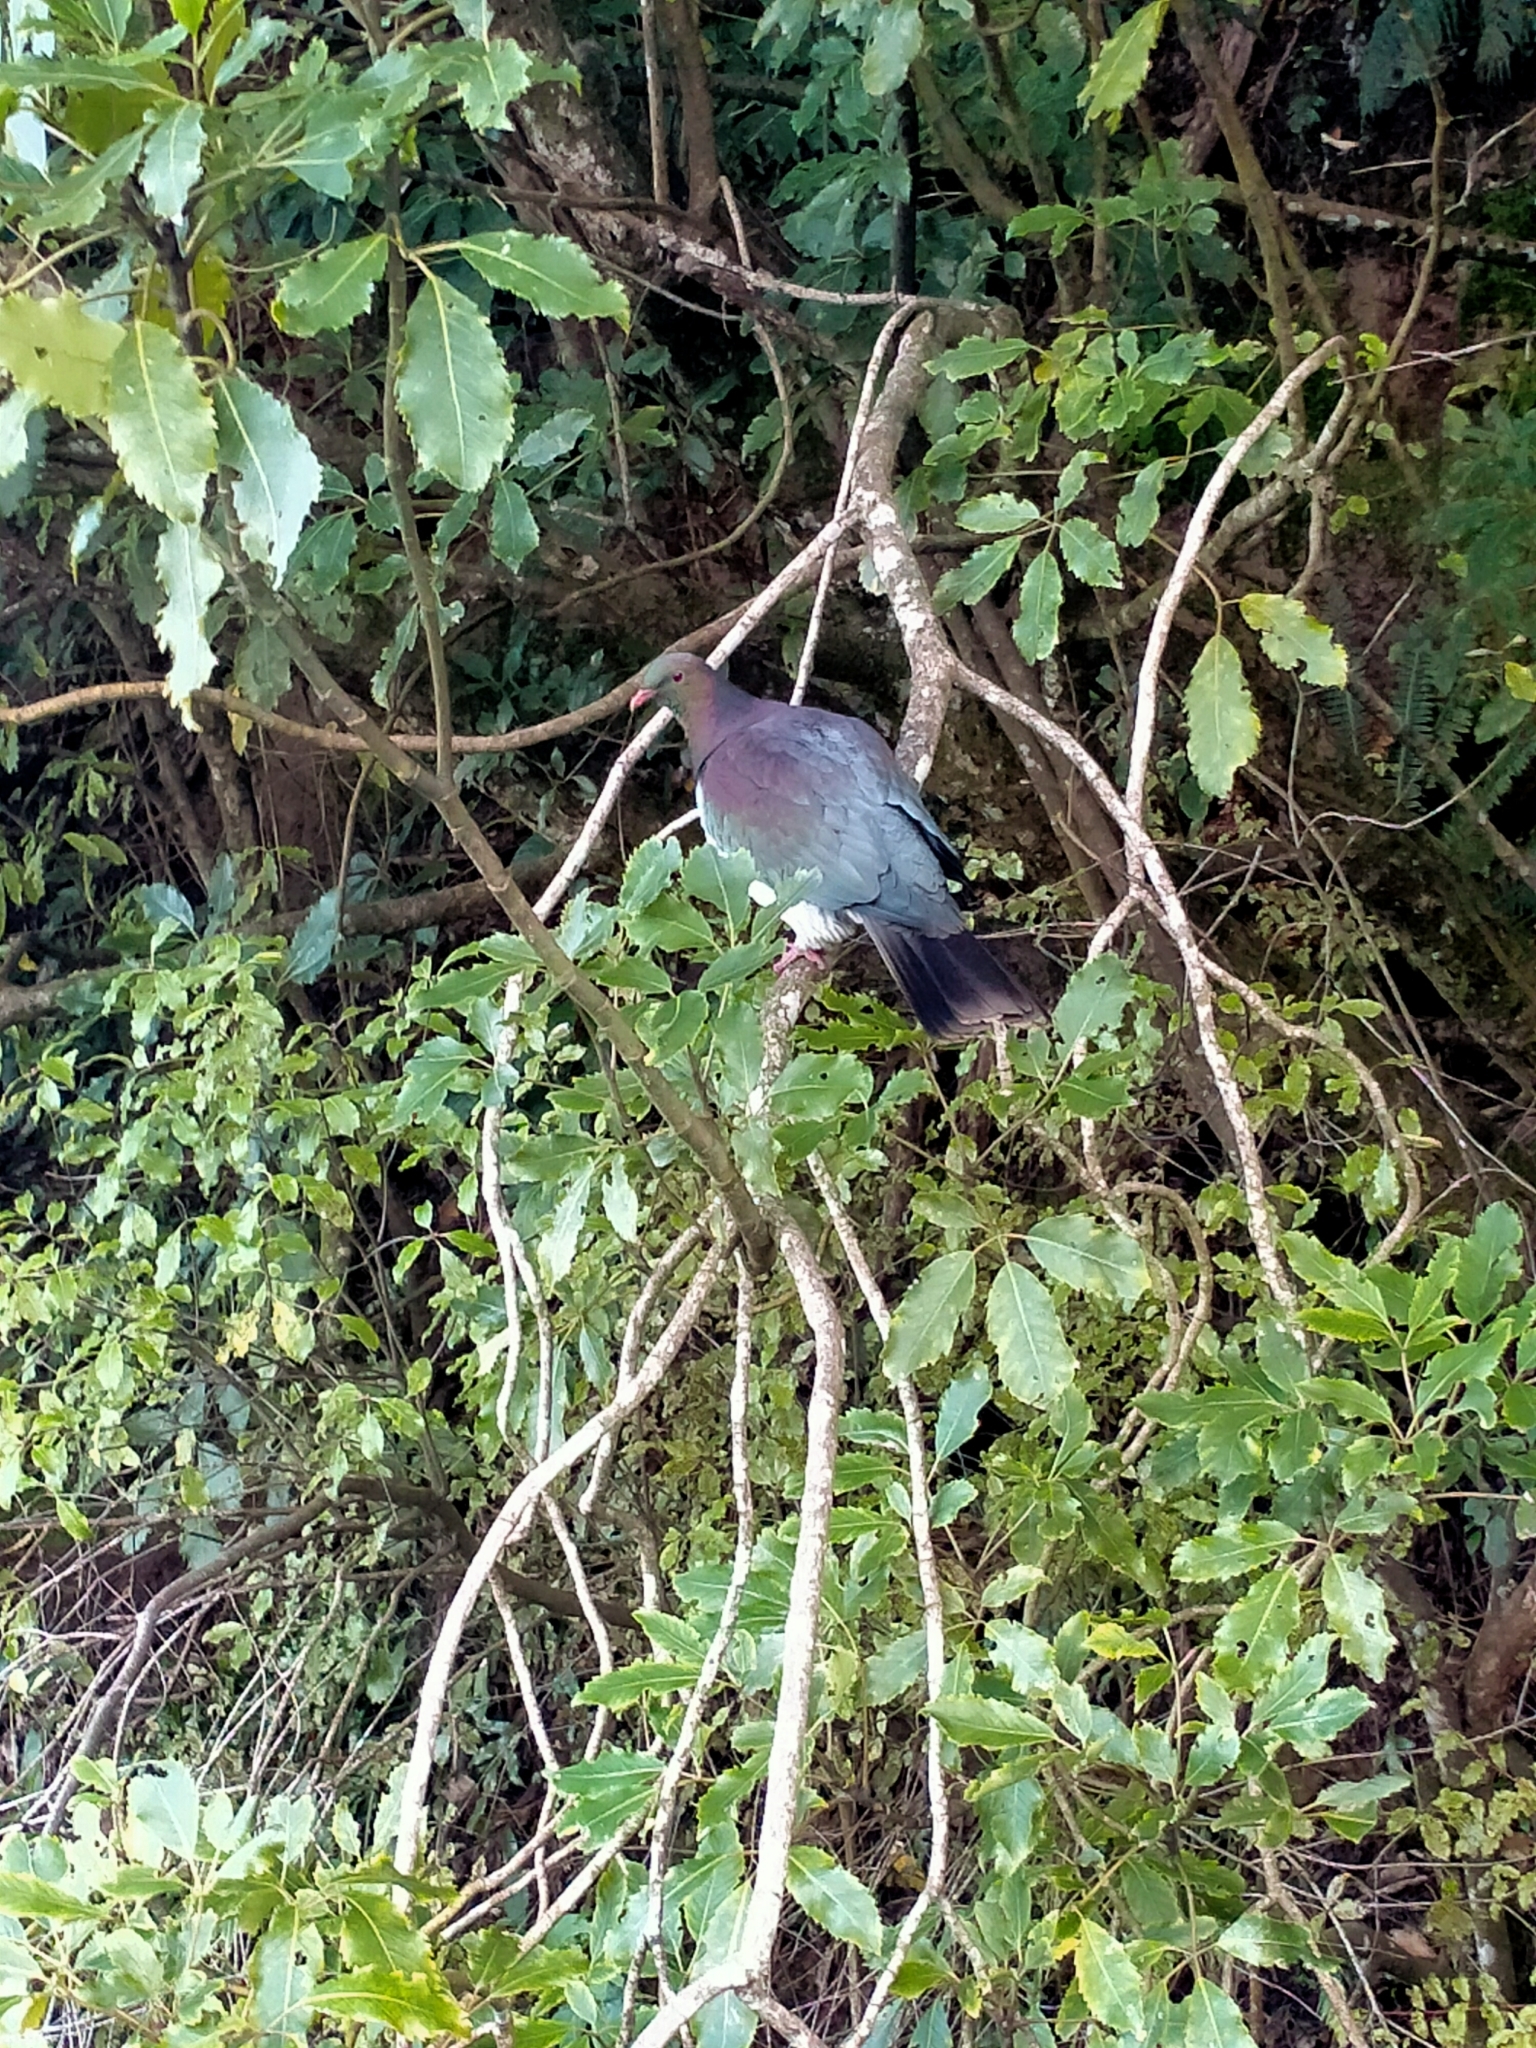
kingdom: Animalia
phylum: Chordata
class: Aves
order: Columbiformes
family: Columbidae
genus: Hemiphaga
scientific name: Hemiphaga novaeseelandiae
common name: New zealand pigeon
